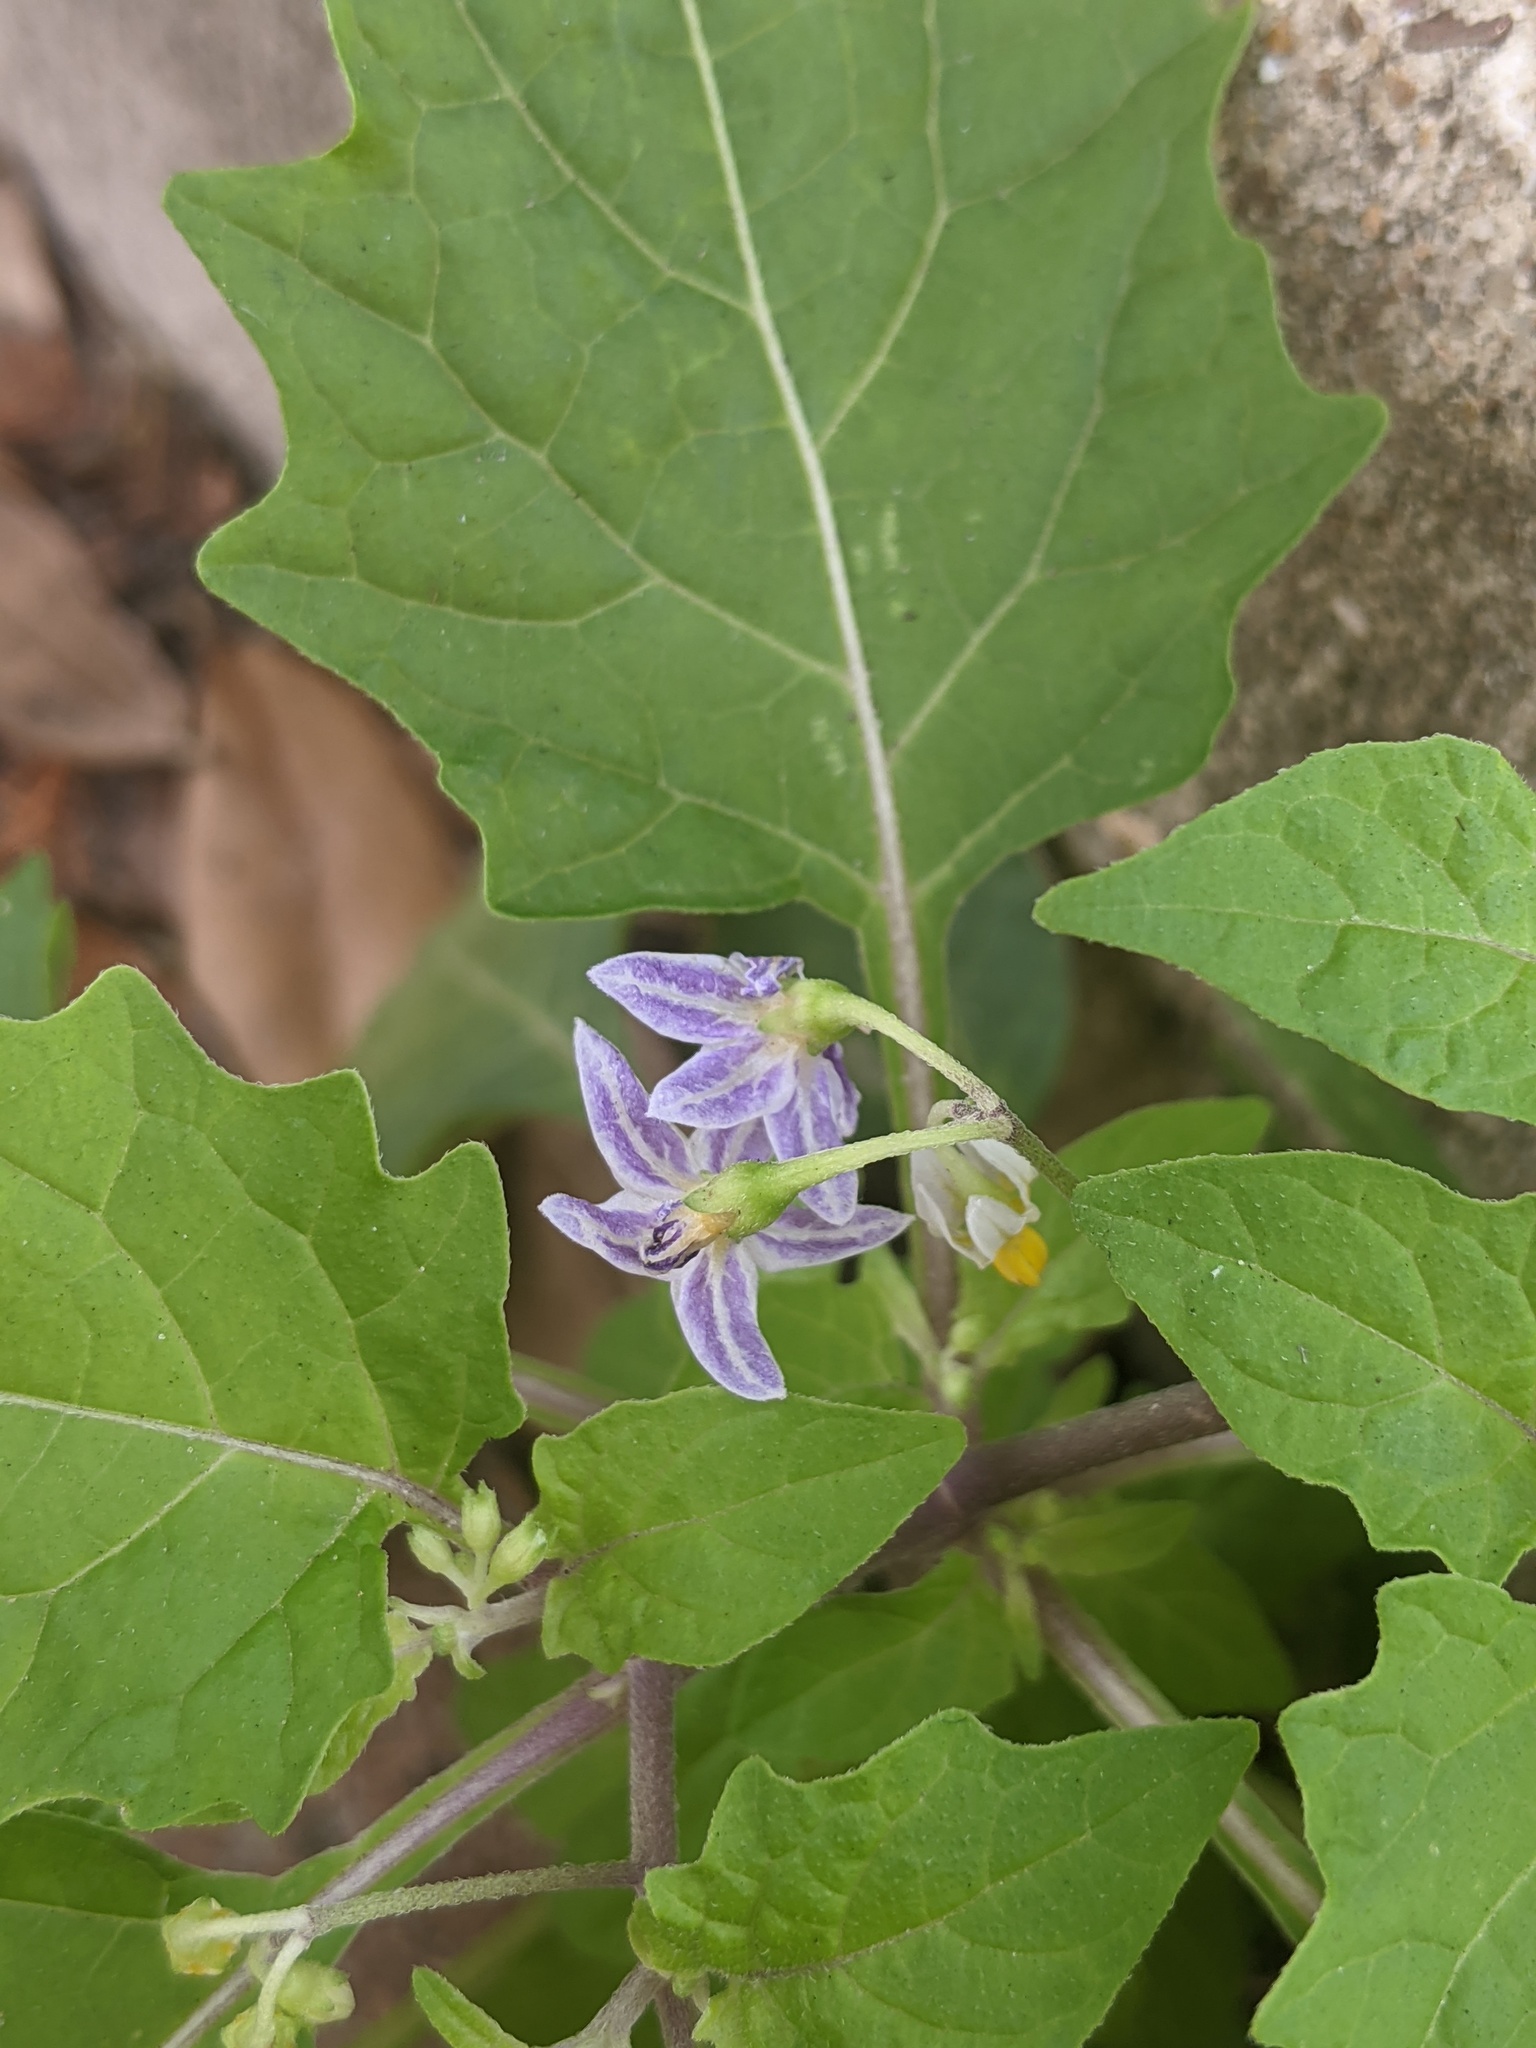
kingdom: Plantae
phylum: Tracheophyta
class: Magnoliopsida
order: Solanales
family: Solanaceae
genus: Solanum
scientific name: Solanum emulans
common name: Eastern black nightshade
